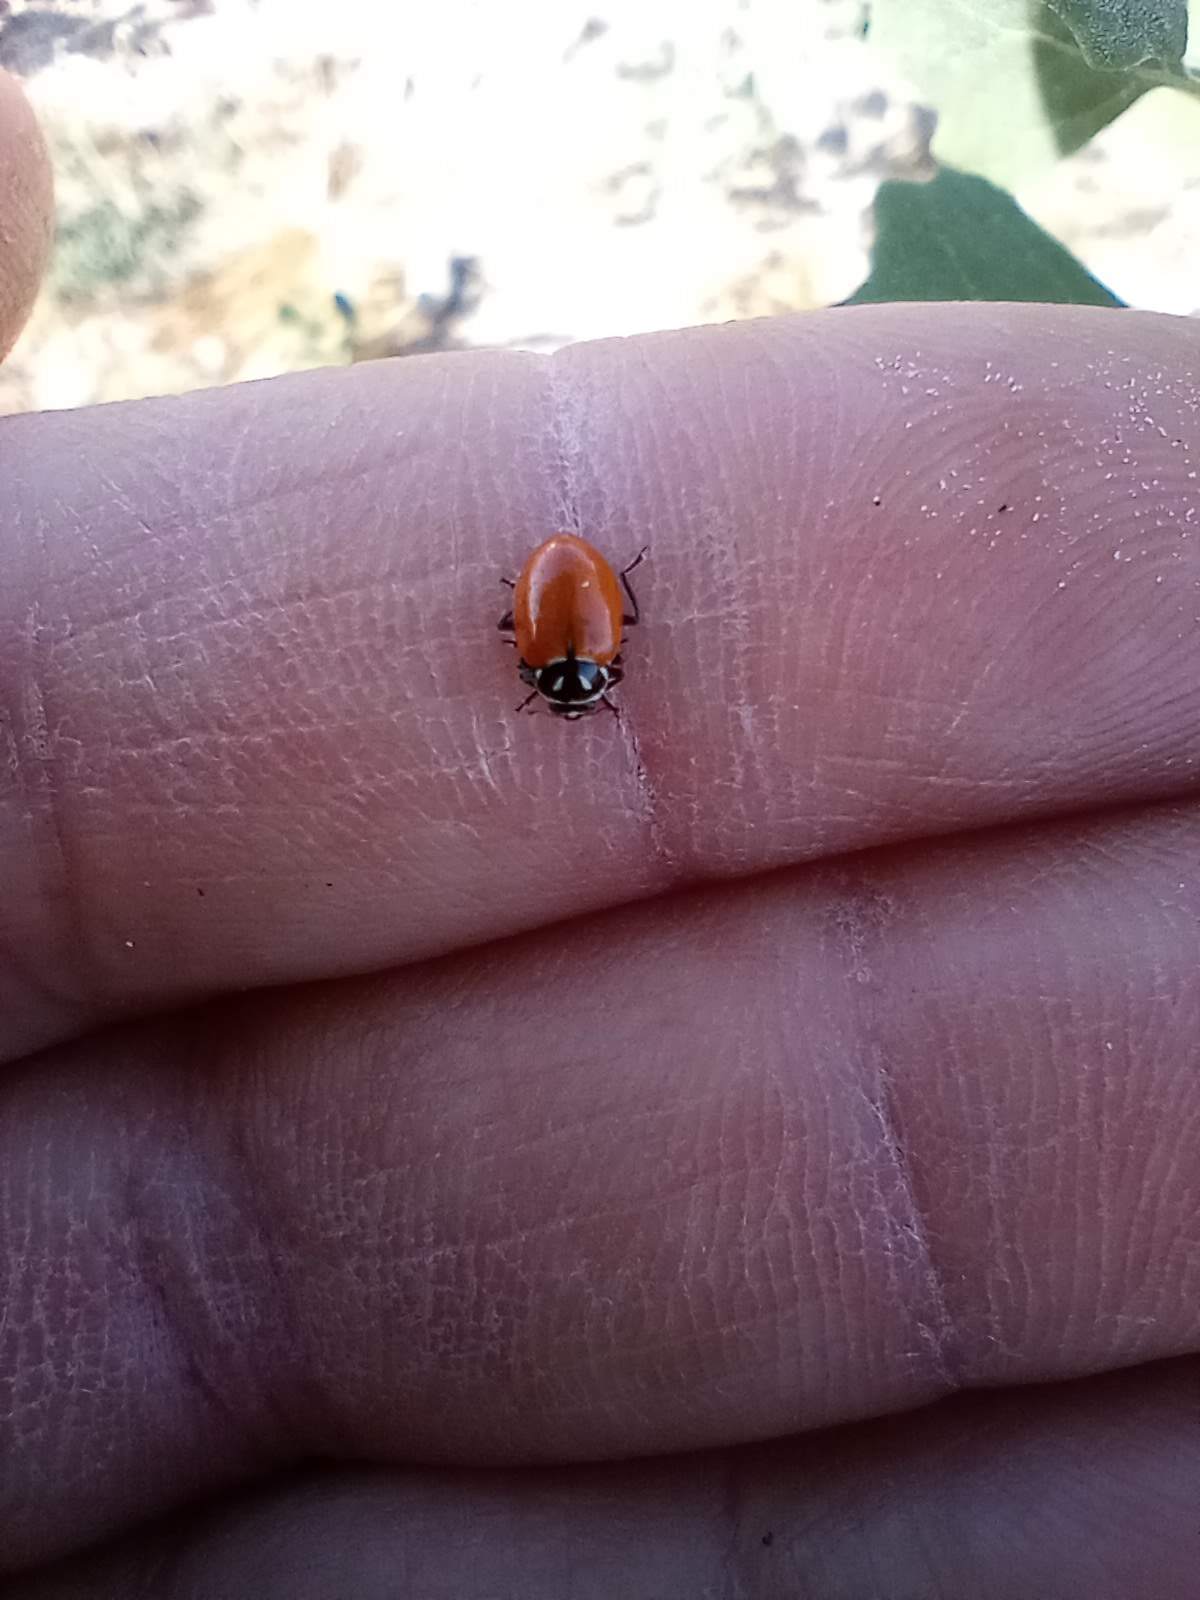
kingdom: Animalia
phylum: Arthropoda
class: Insecta
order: Coleoptera
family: Coccinellidae
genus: Hippodamia
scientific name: Hippodamia convergens
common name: Convergent lady beetle
